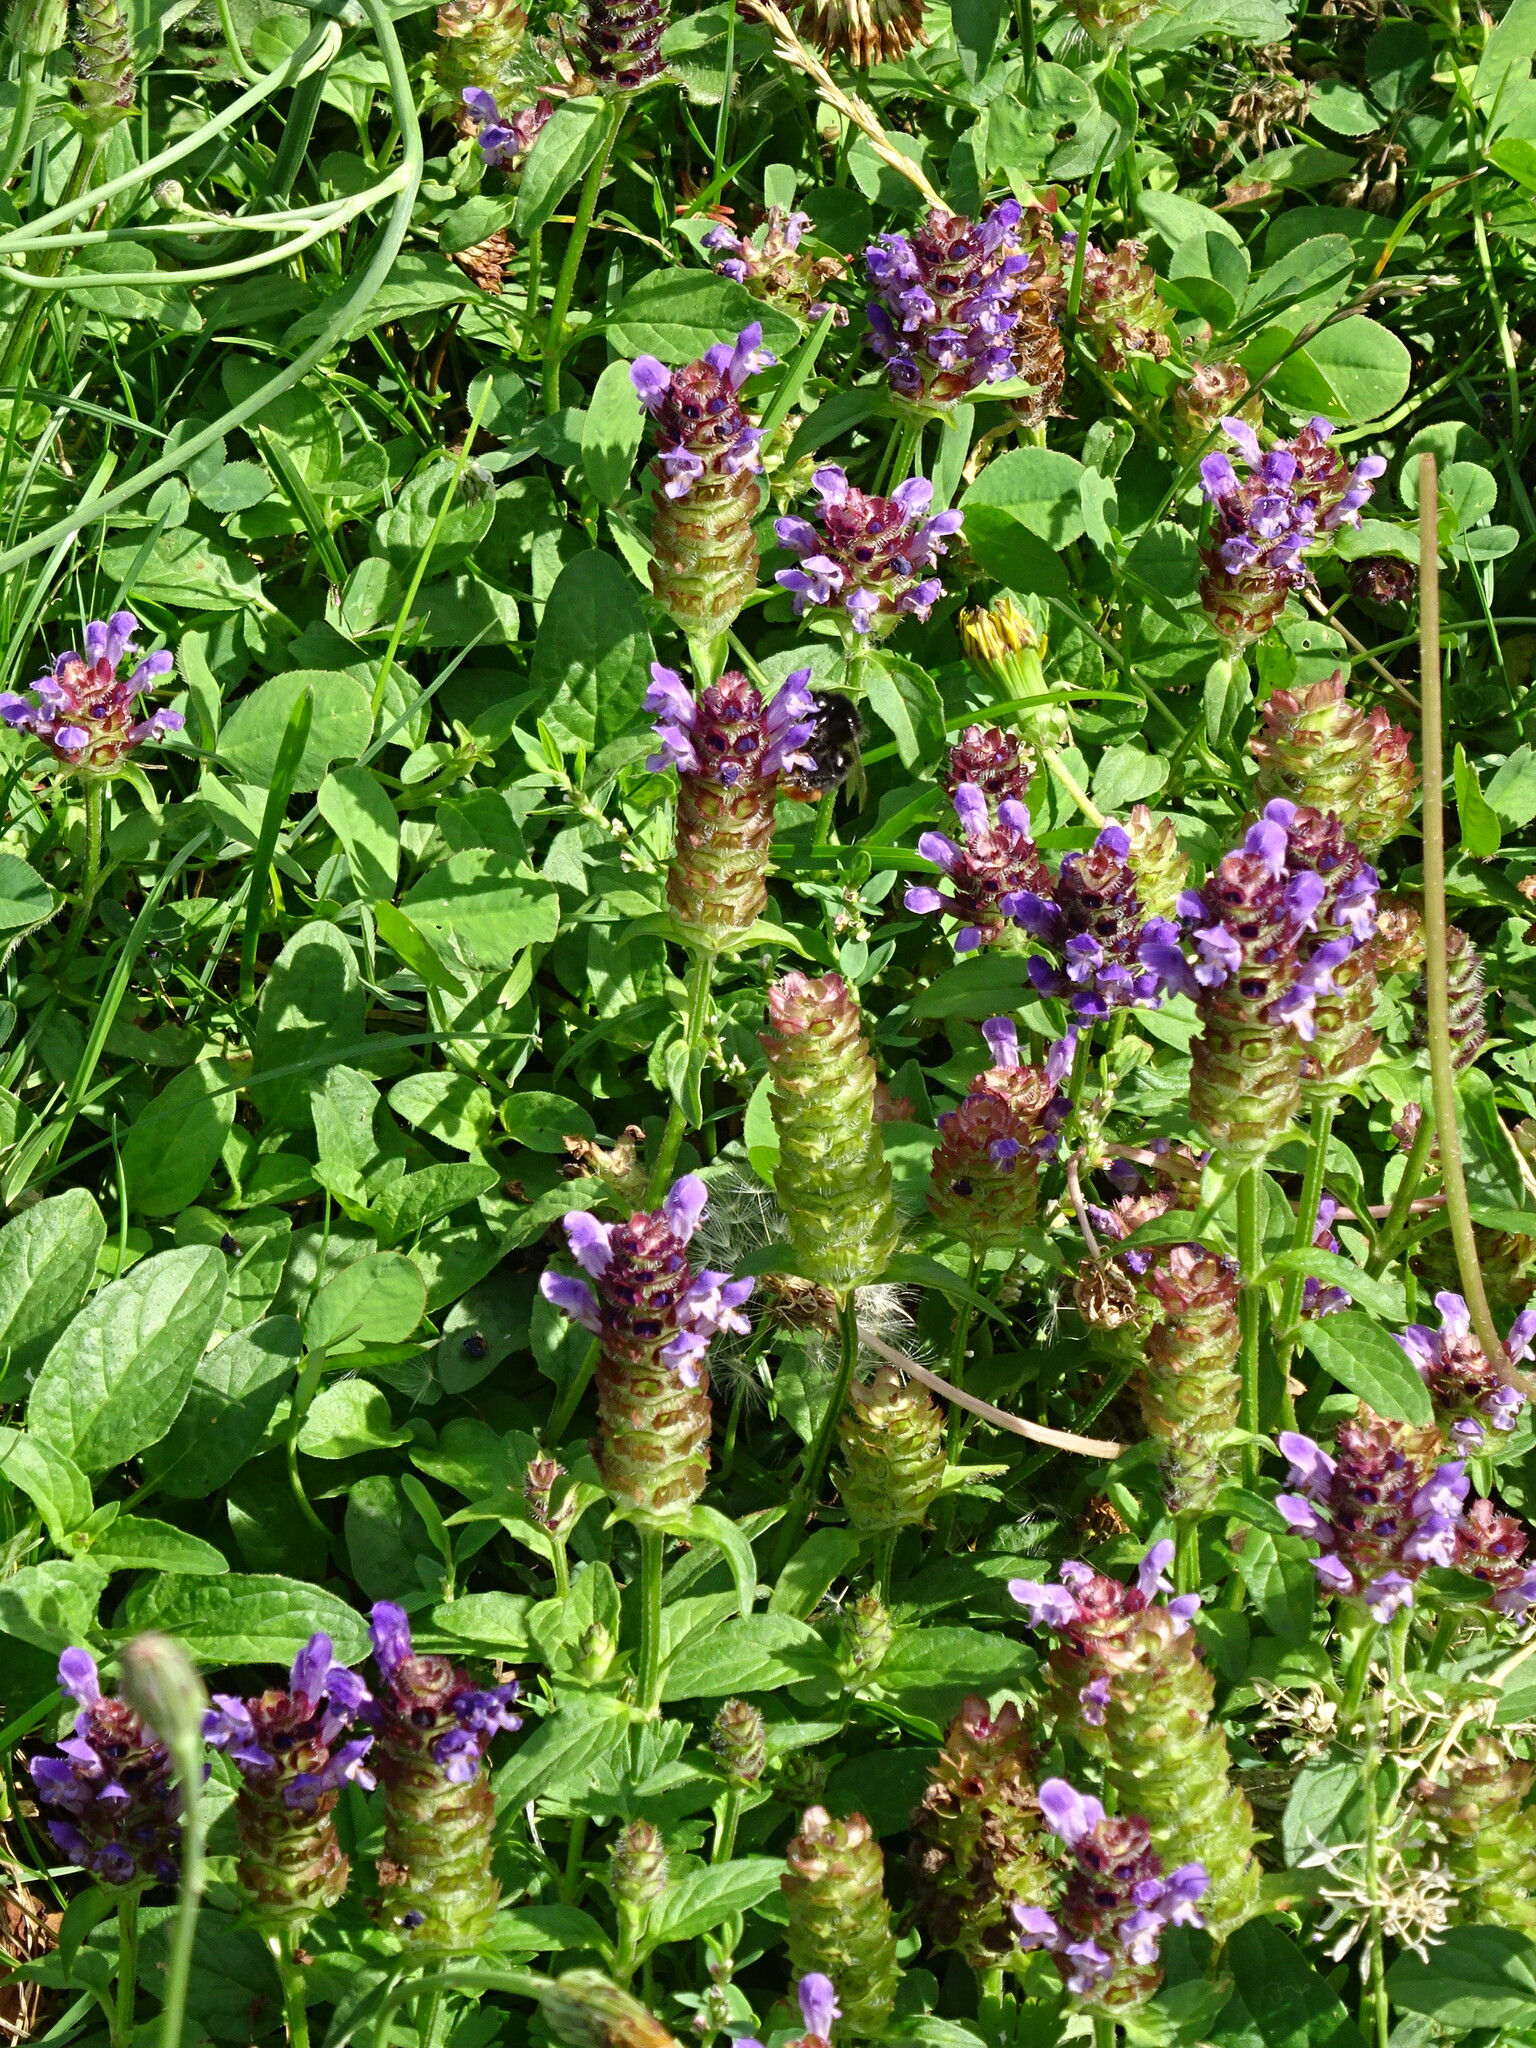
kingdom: Plantae
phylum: Tracheophyta
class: Magnoliopsida
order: Lamiales
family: Lamiaceae
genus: Prunella
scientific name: Prunella vulgaris
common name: Heal-all
